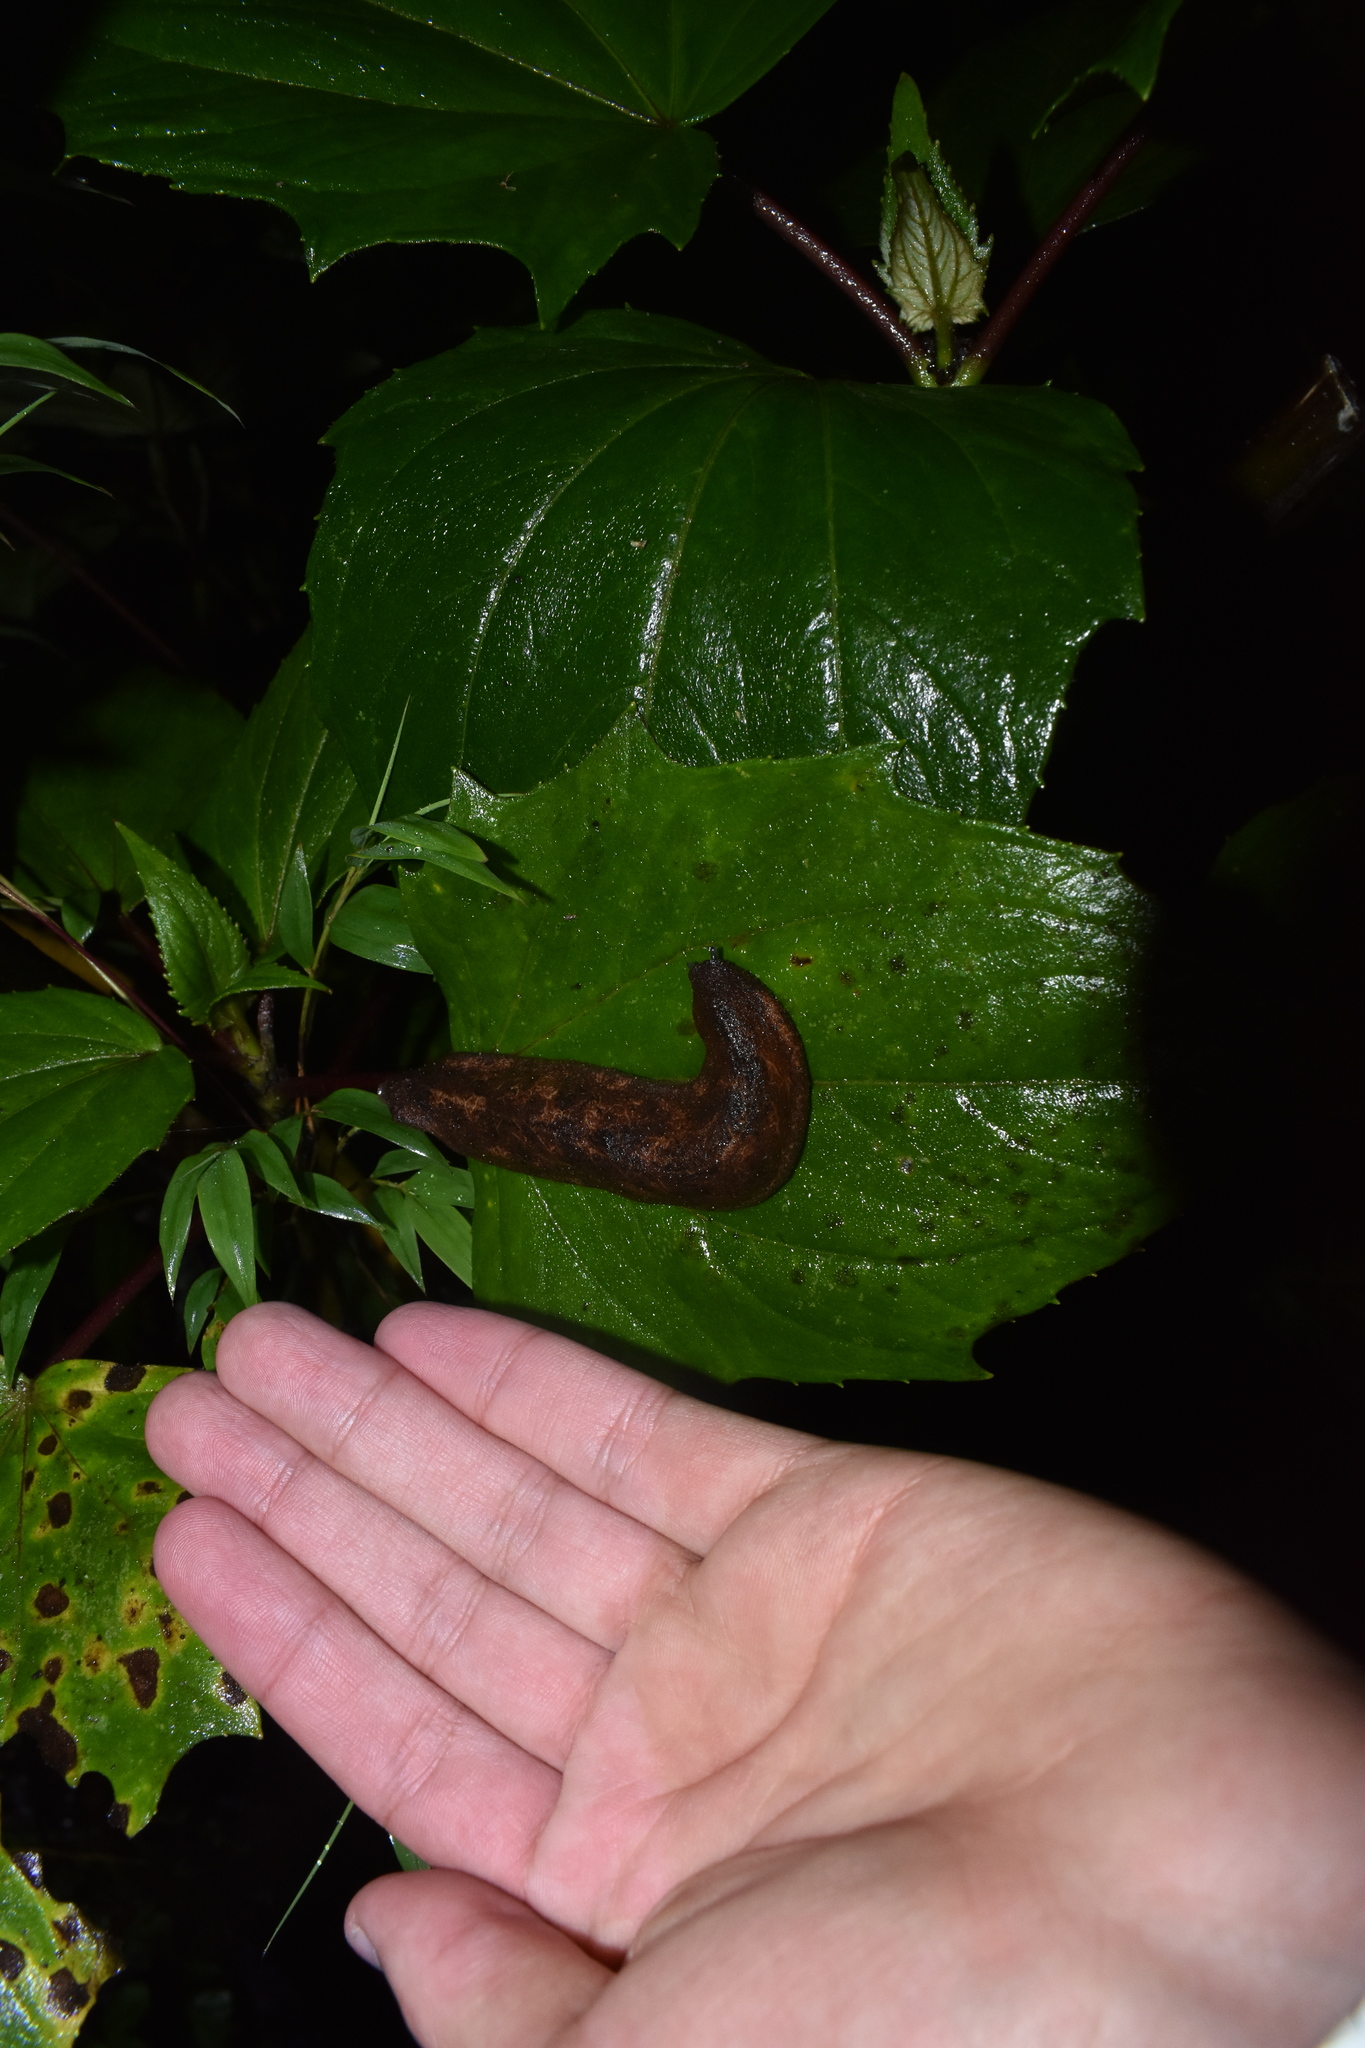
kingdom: Animalia
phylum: Mollusca
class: Gastropoda
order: Systellommatophora
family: Veronicellidae
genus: Colosius
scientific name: Colosius confusus
